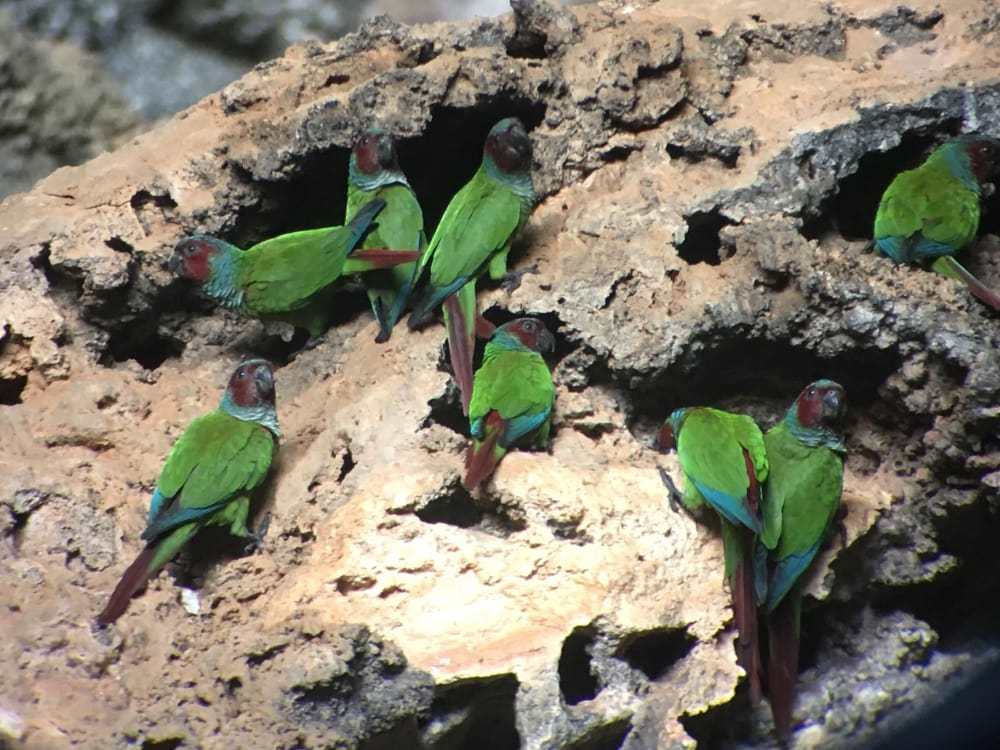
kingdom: Animalia
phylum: Chordata
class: Aves
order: Psittaciformes
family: Psittacidae
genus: Pyrrhura
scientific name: Pyrrhura pfrimeri
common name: Pfrimer's parakeet
